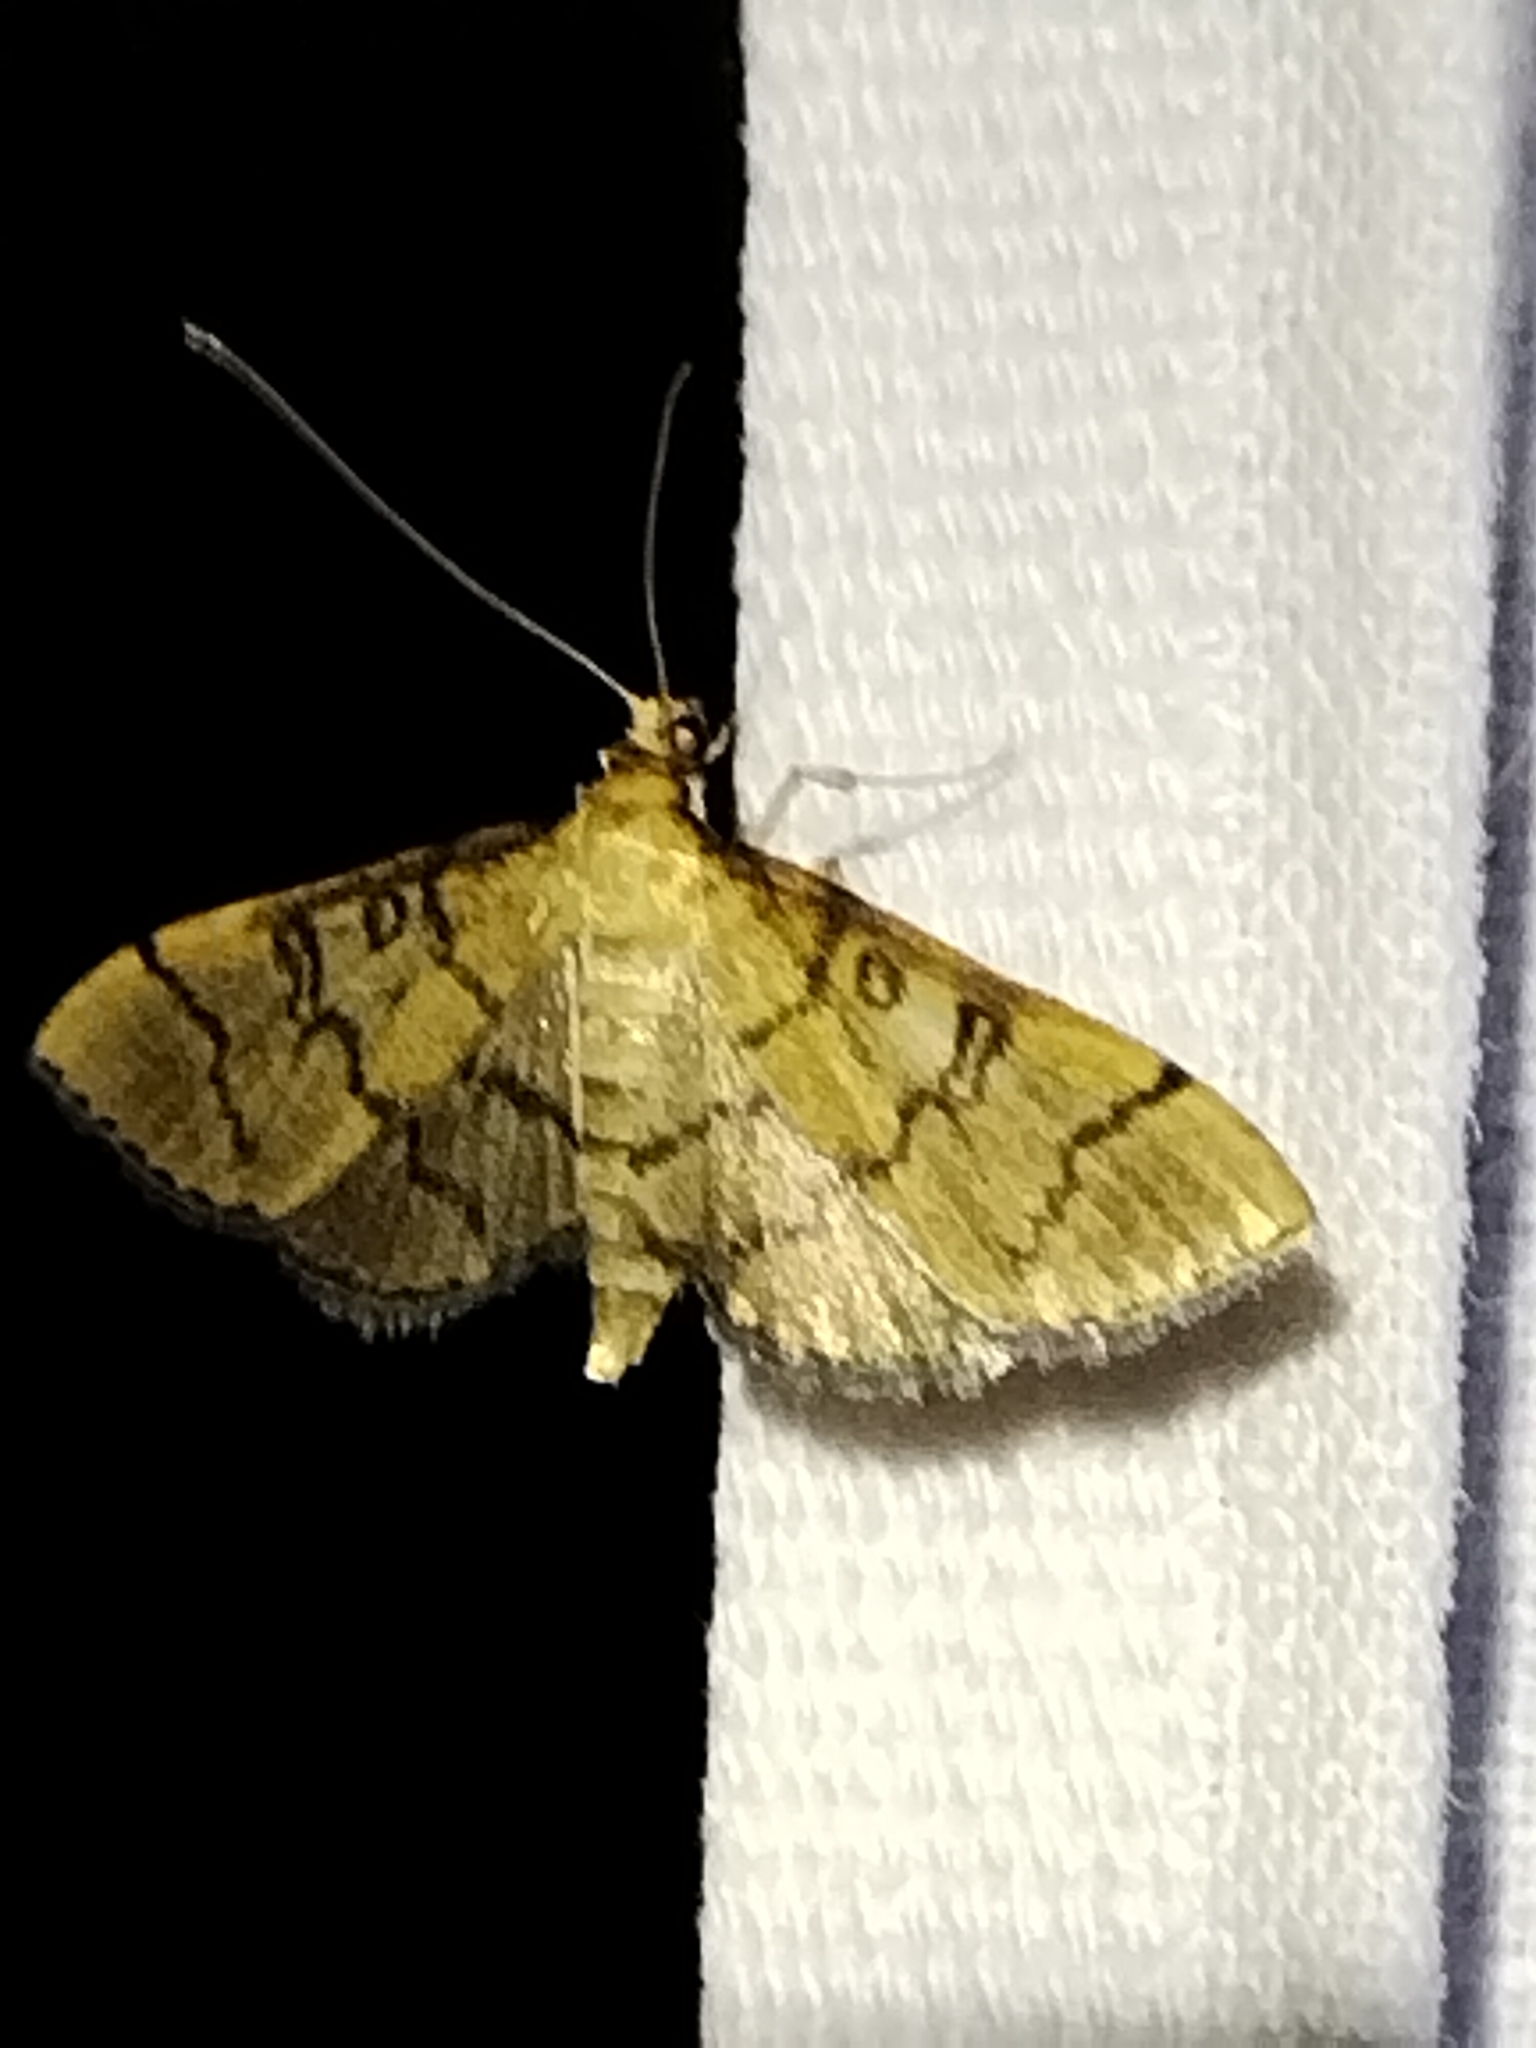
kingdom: Animalia
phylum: Arthropoda
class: Insecta
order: Lepidoptera
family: Crambidae
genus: Lamprosema
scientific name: Lamprosema Blepharomastix ranalis
